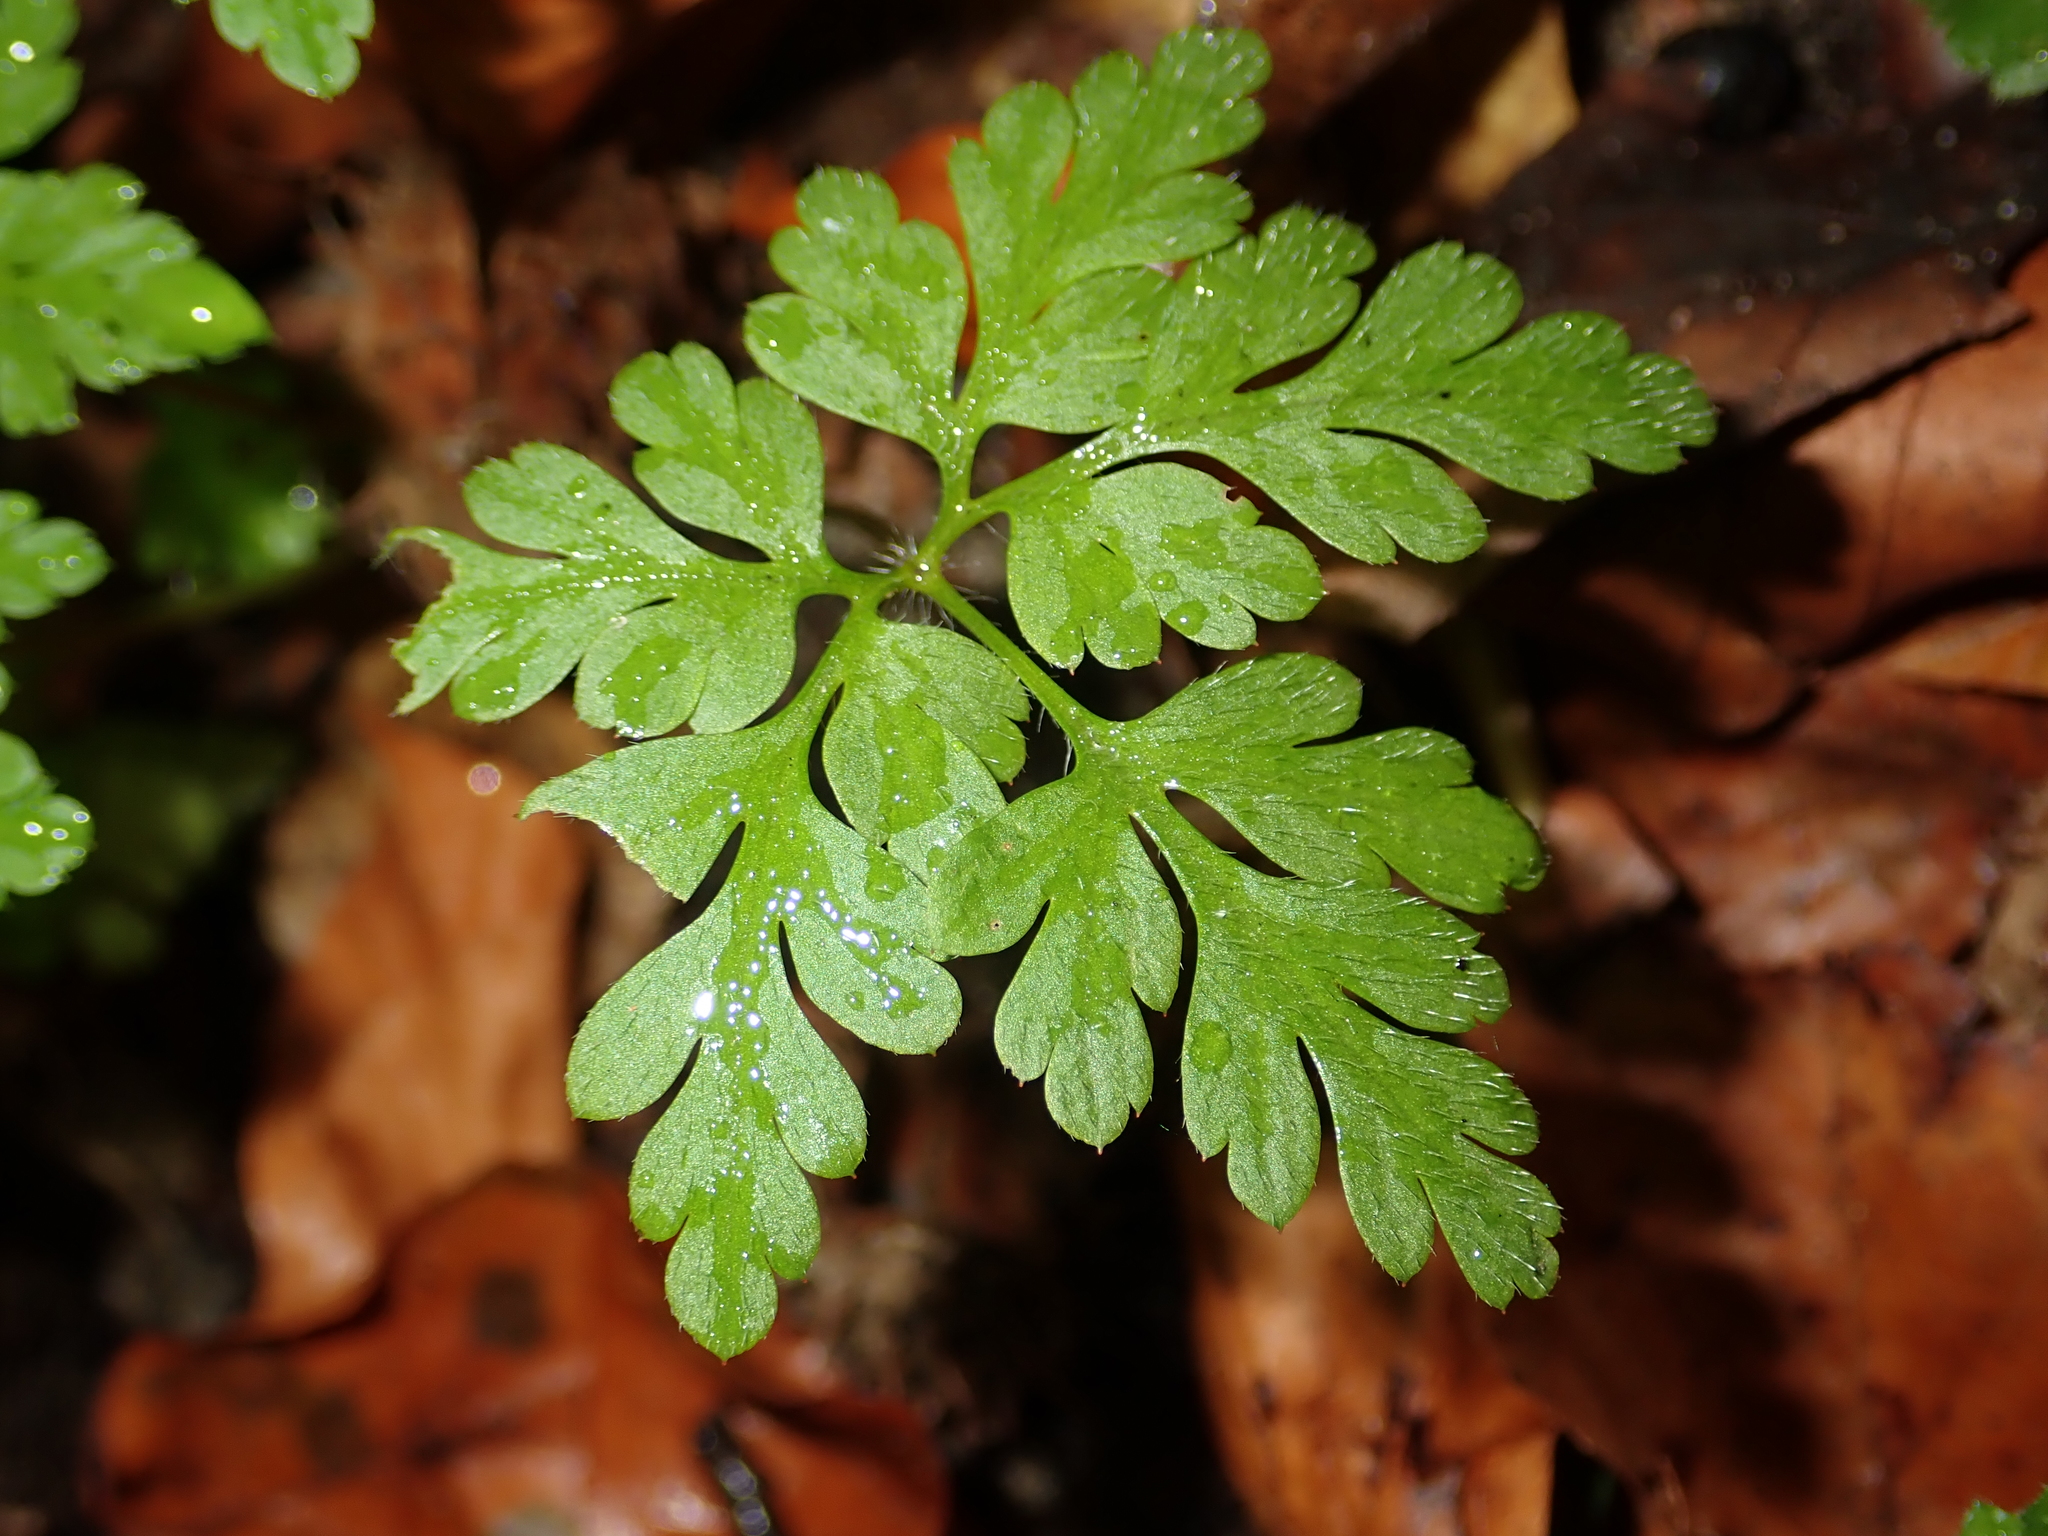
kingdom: Plantae
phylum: Tracheophyta
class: Magnoliopsida
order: Geraniales
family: Geraniaceae
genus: Geranium
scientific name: Geranium robertianum
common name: Herb-robert
